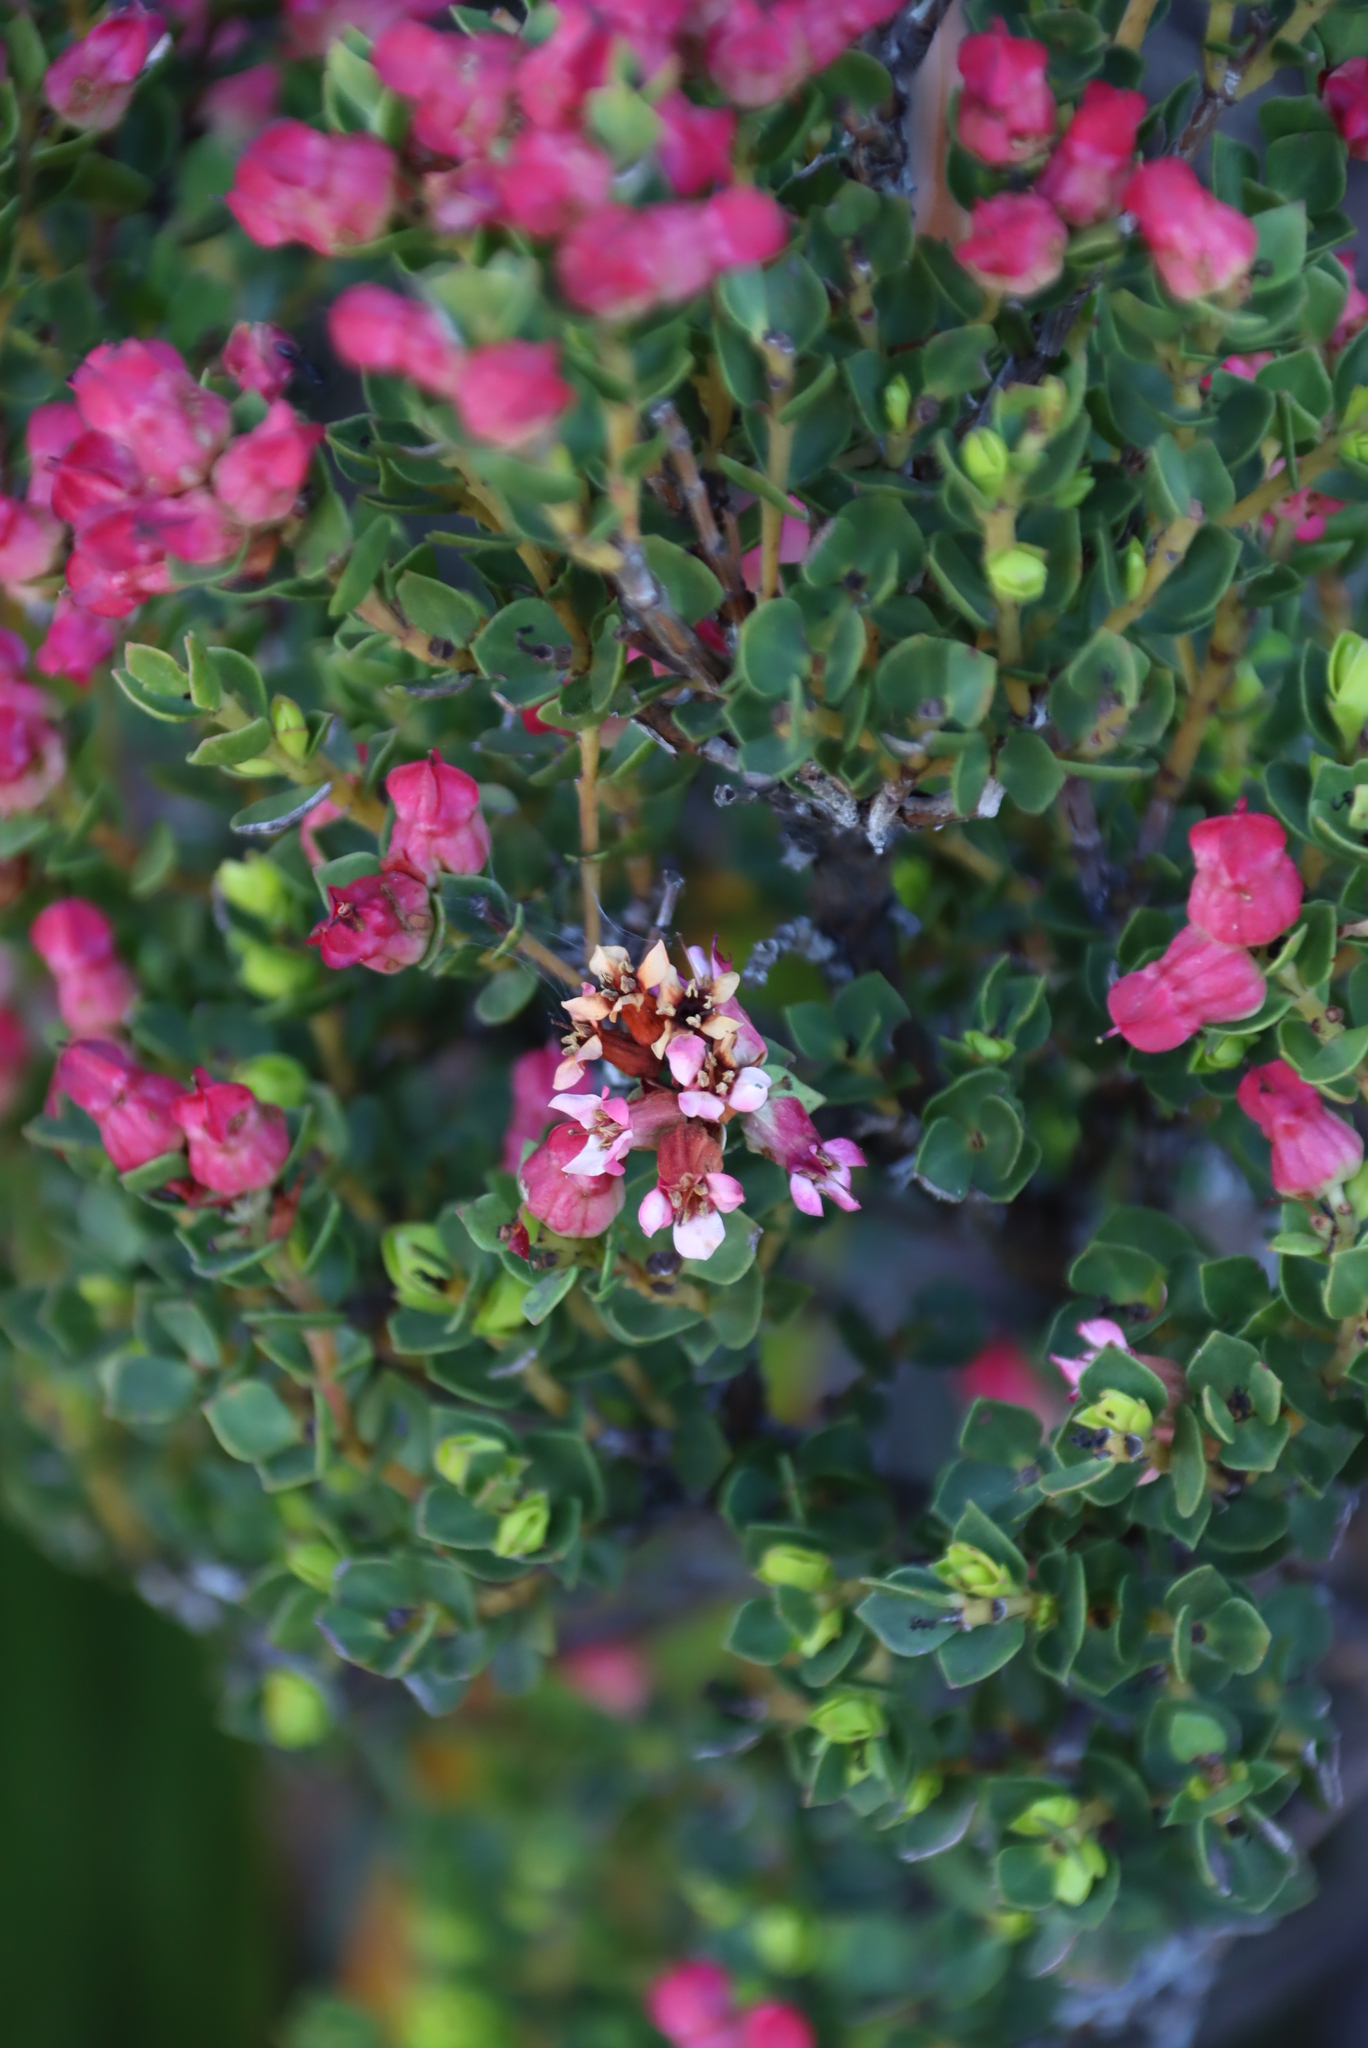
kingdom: Plantae
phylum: Tracheophyta
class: Magnoliopsida
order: Myrtales
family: Penaeaceae
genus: Brachysiphon
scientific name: Brachysiphon fucatus
